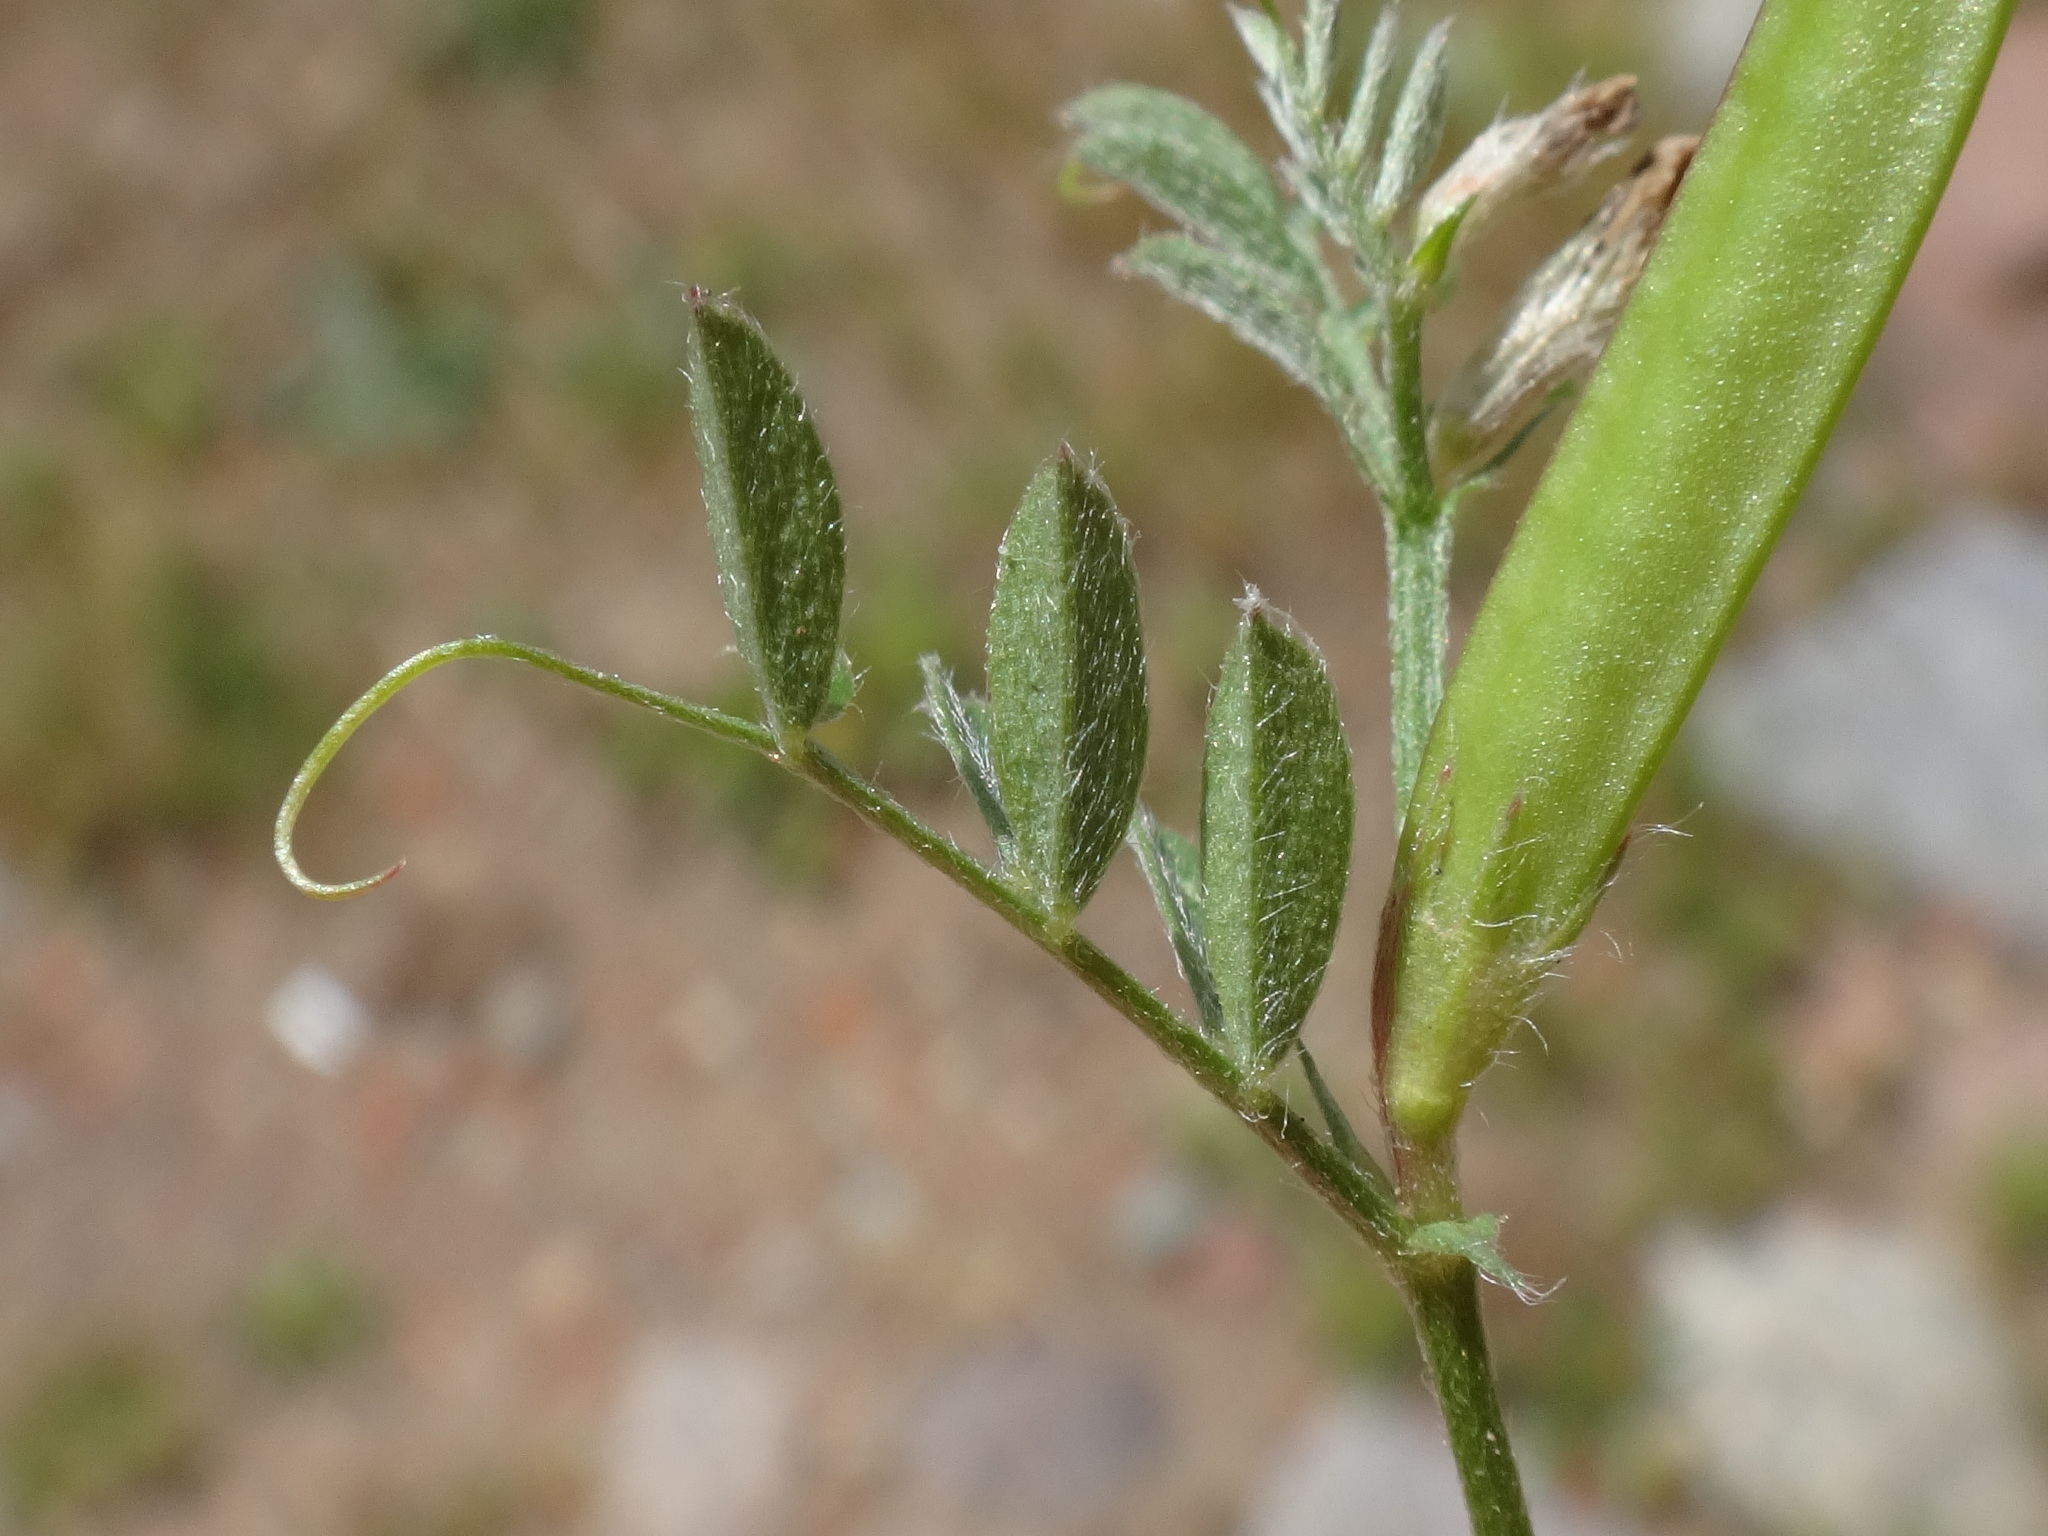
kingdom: Plantae
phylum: Tracheophyta
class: Magnoliopsida
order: Fabales
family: Fabaceae
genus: Vicia
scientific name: Vicia lathyroides
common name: Spring vetch
